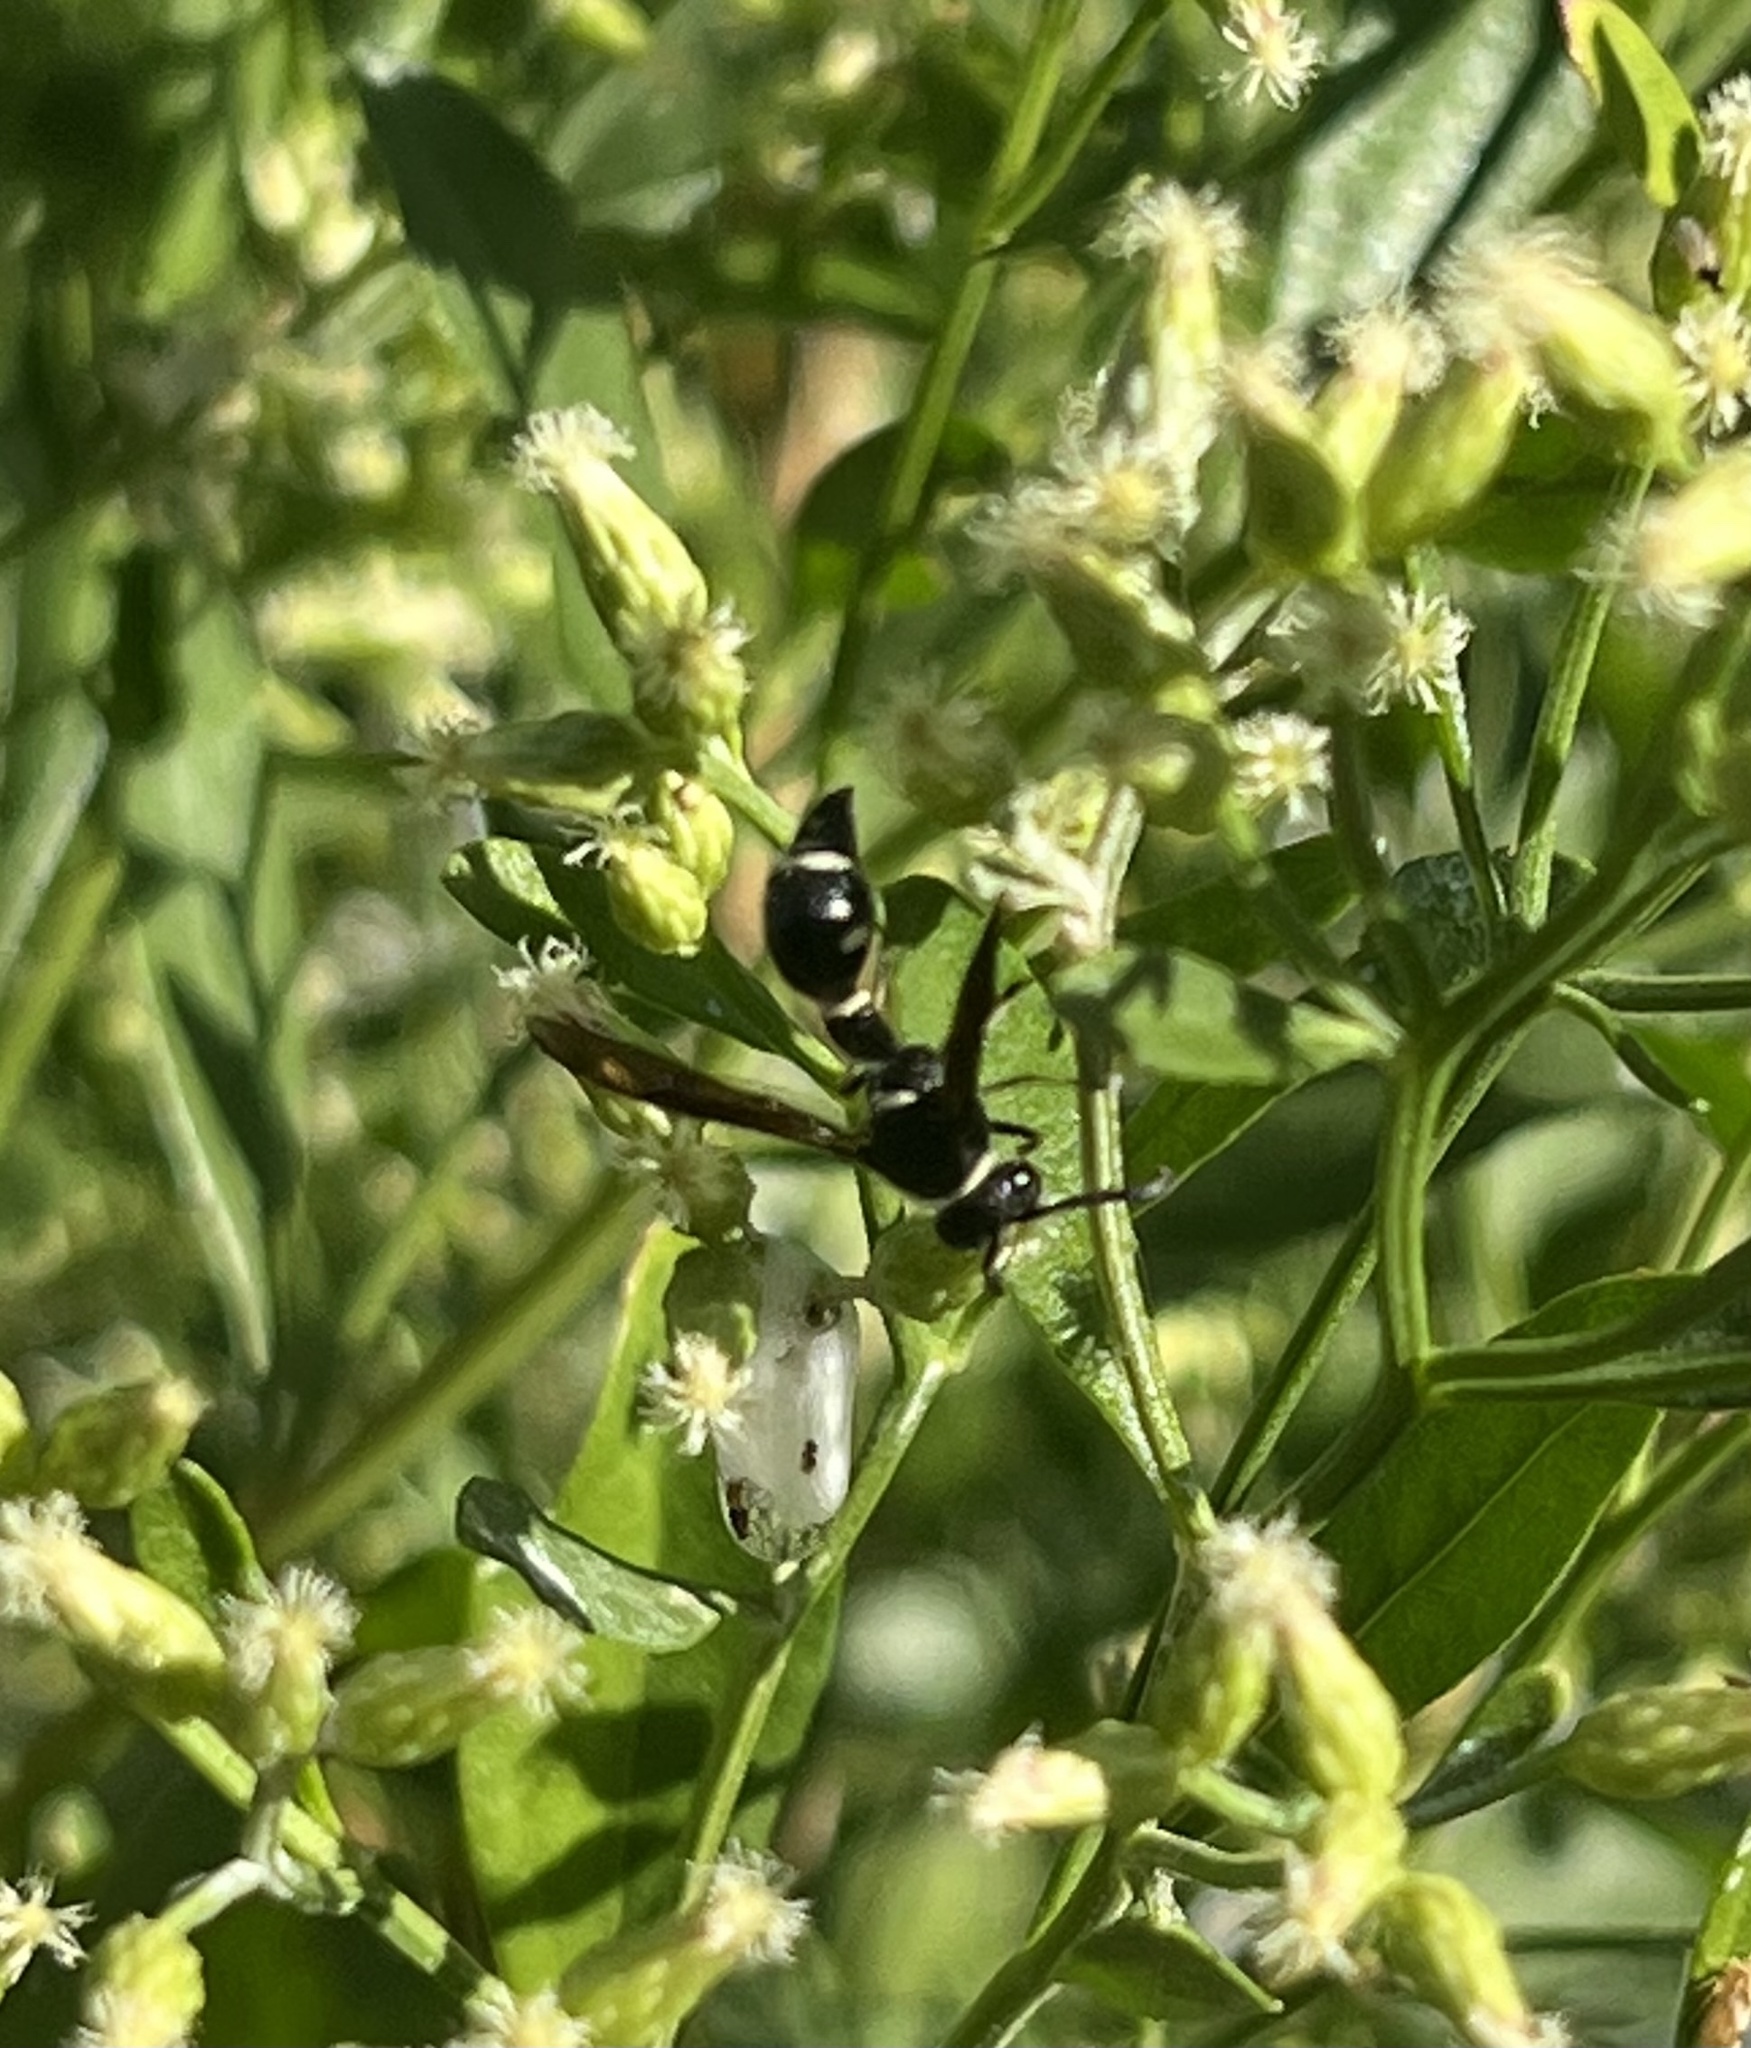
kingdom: Animalia
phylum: Arthropoda
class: Insecta
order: Hymenoptera
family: Vespidae
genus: Eumenes
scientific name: Eumenes fraternus
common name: Fraternal potter wasp
